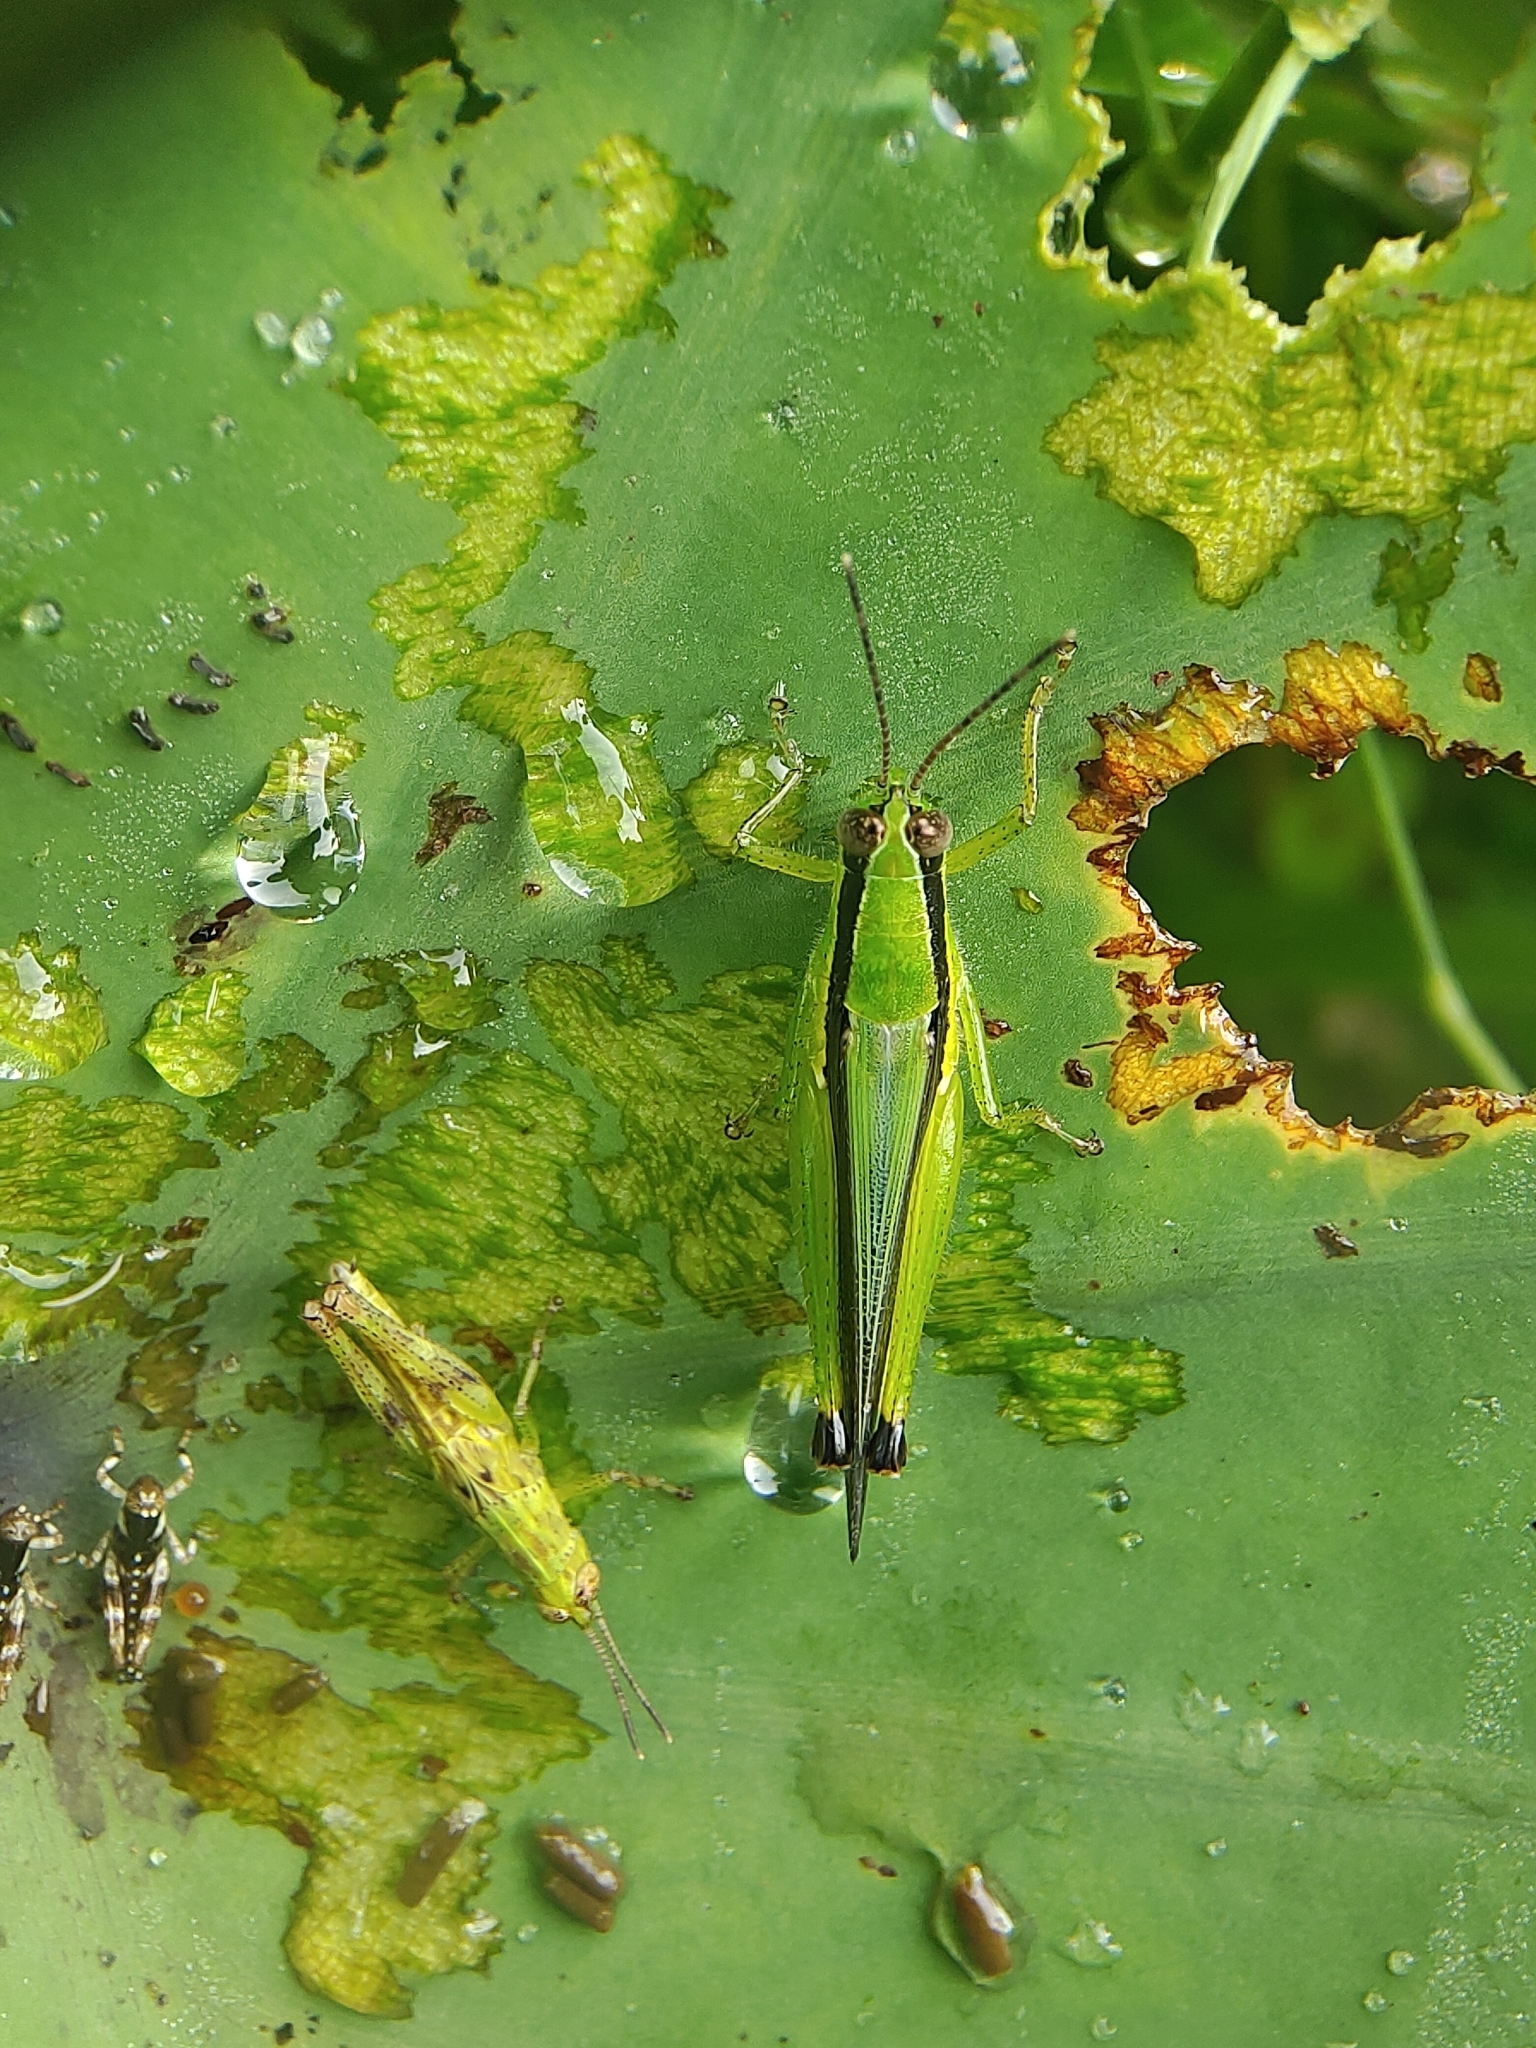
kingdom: Animalia
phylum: Arthropoda
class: Insecta
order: Orthoptera
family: Acrididae
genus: Gesonula
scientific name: Gesonula mundata
